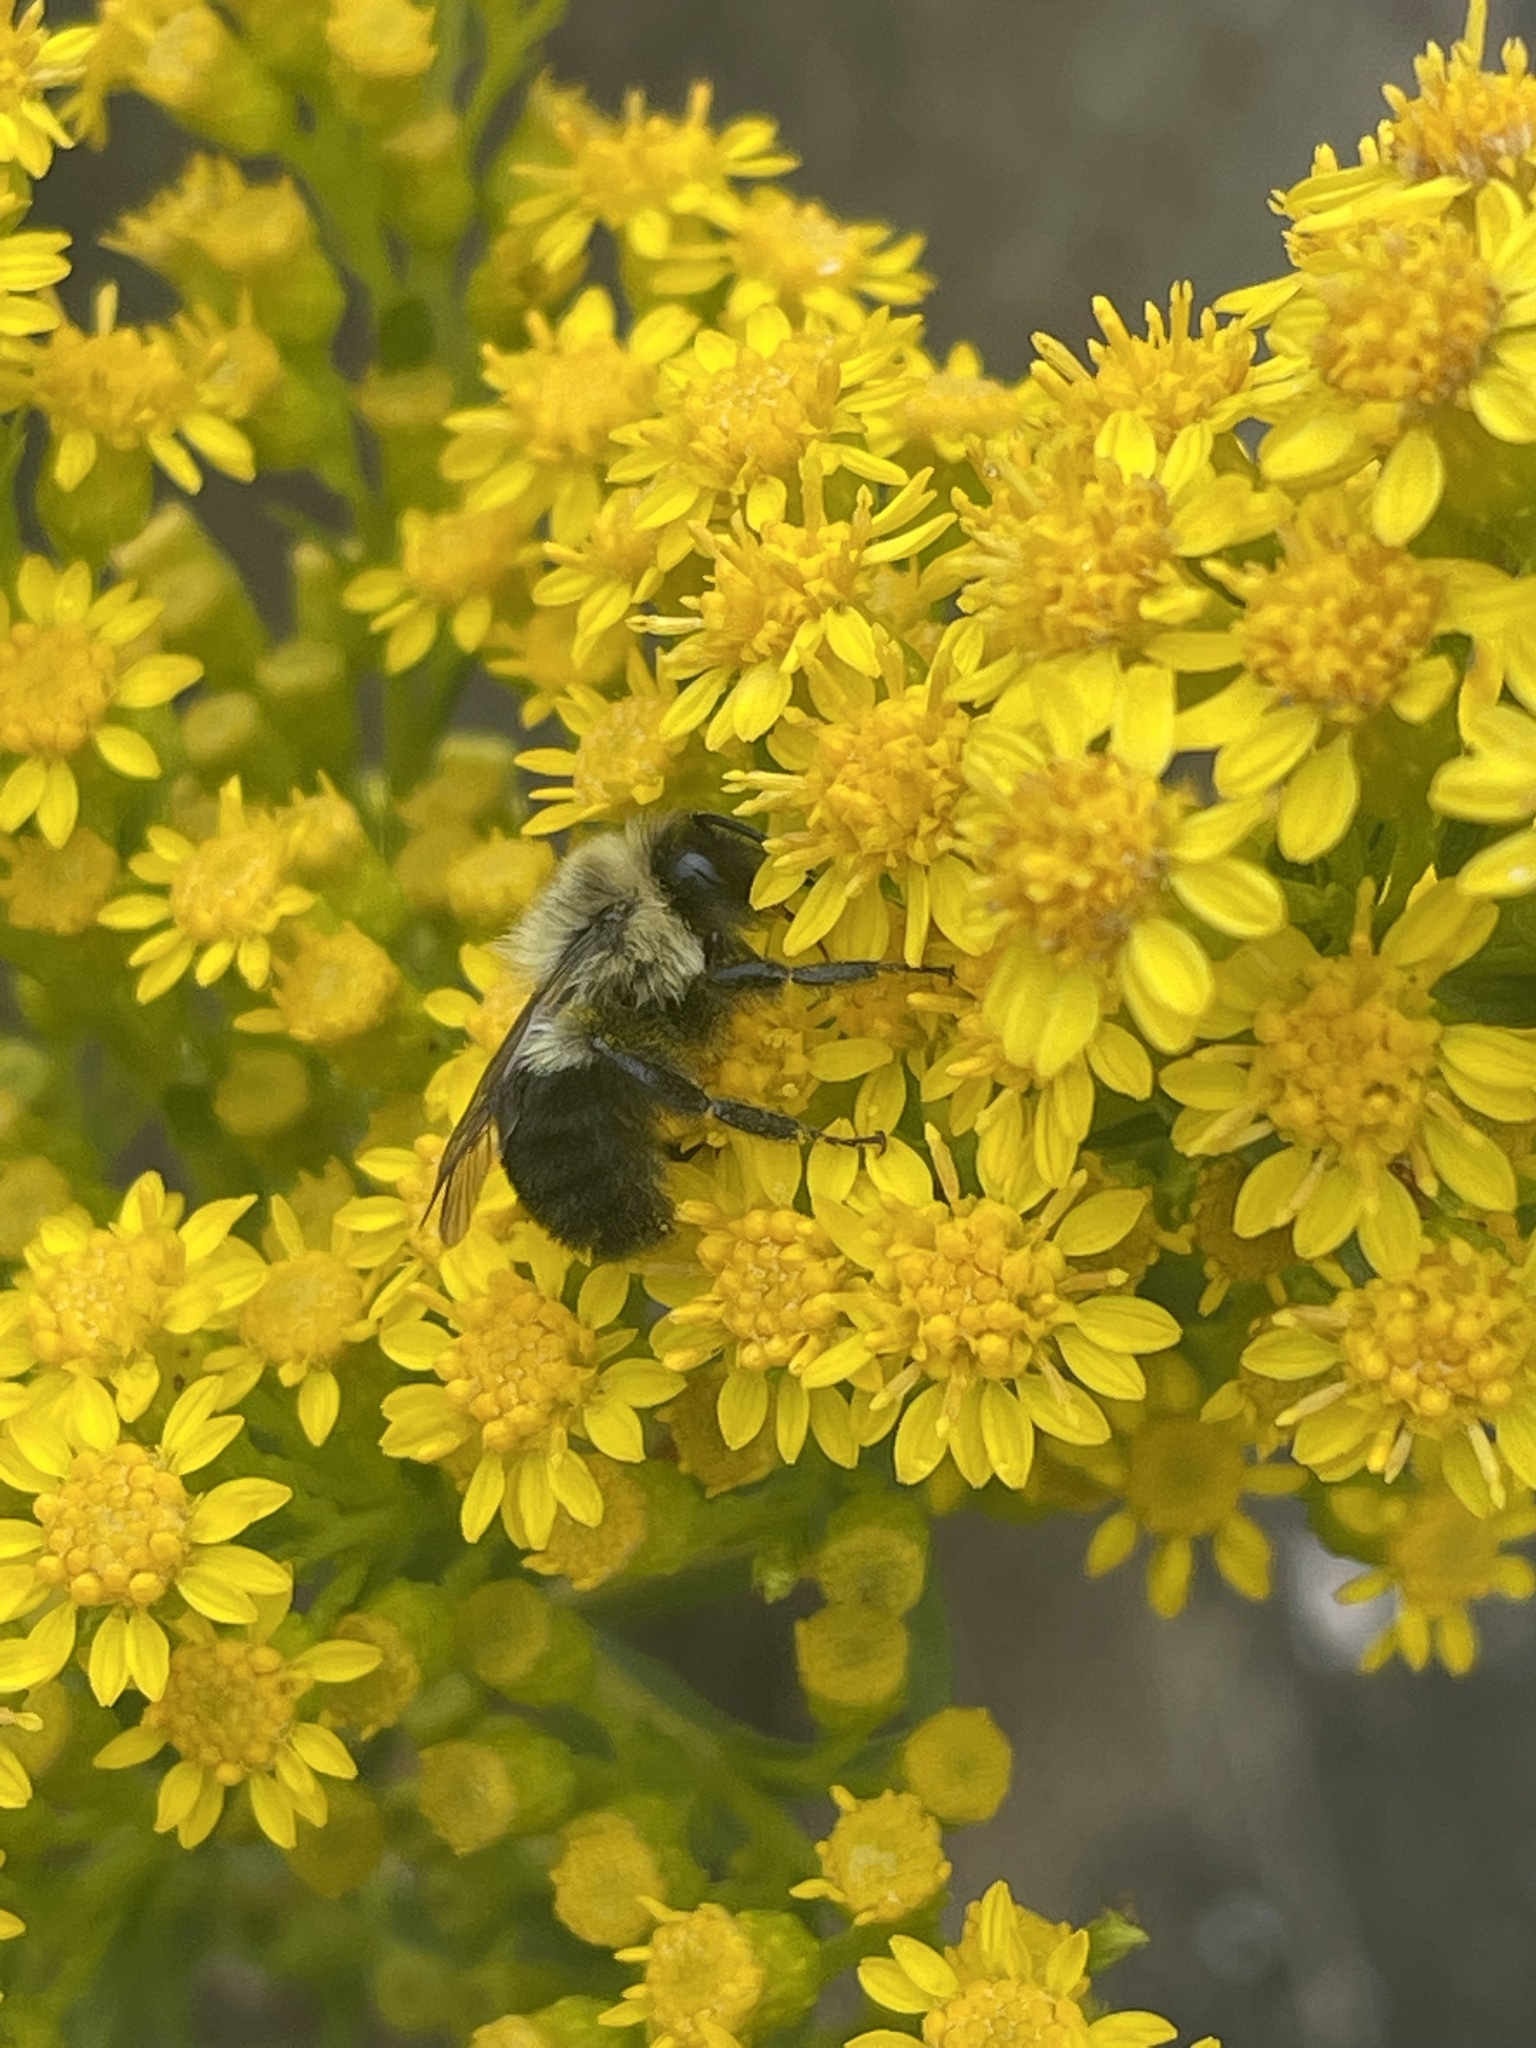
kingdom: Animalia
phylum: Arthropoda
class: Insecta
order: Hymenoptera
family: Apidae
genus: Bombus
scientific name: Bombus impatiens
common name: Common eastern bumble bee
